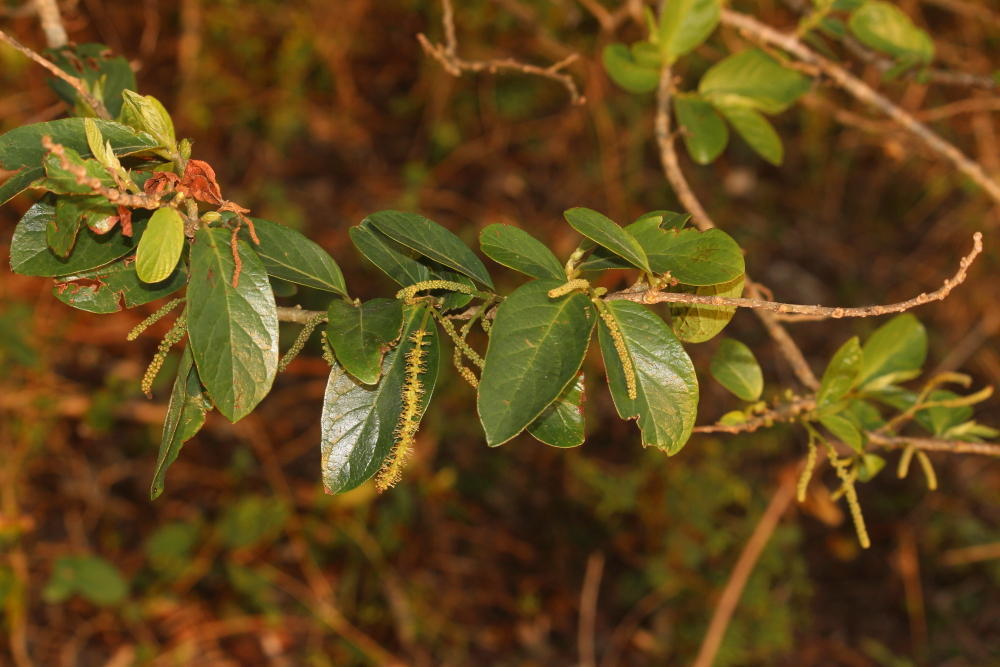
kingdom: Plantae
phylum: Tracheophyta
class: Magnoliopsida
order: Malpighiales
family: Phyllanthaceae
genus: Antidesma
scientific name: Antidesma venosum
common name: Tassel-berry
